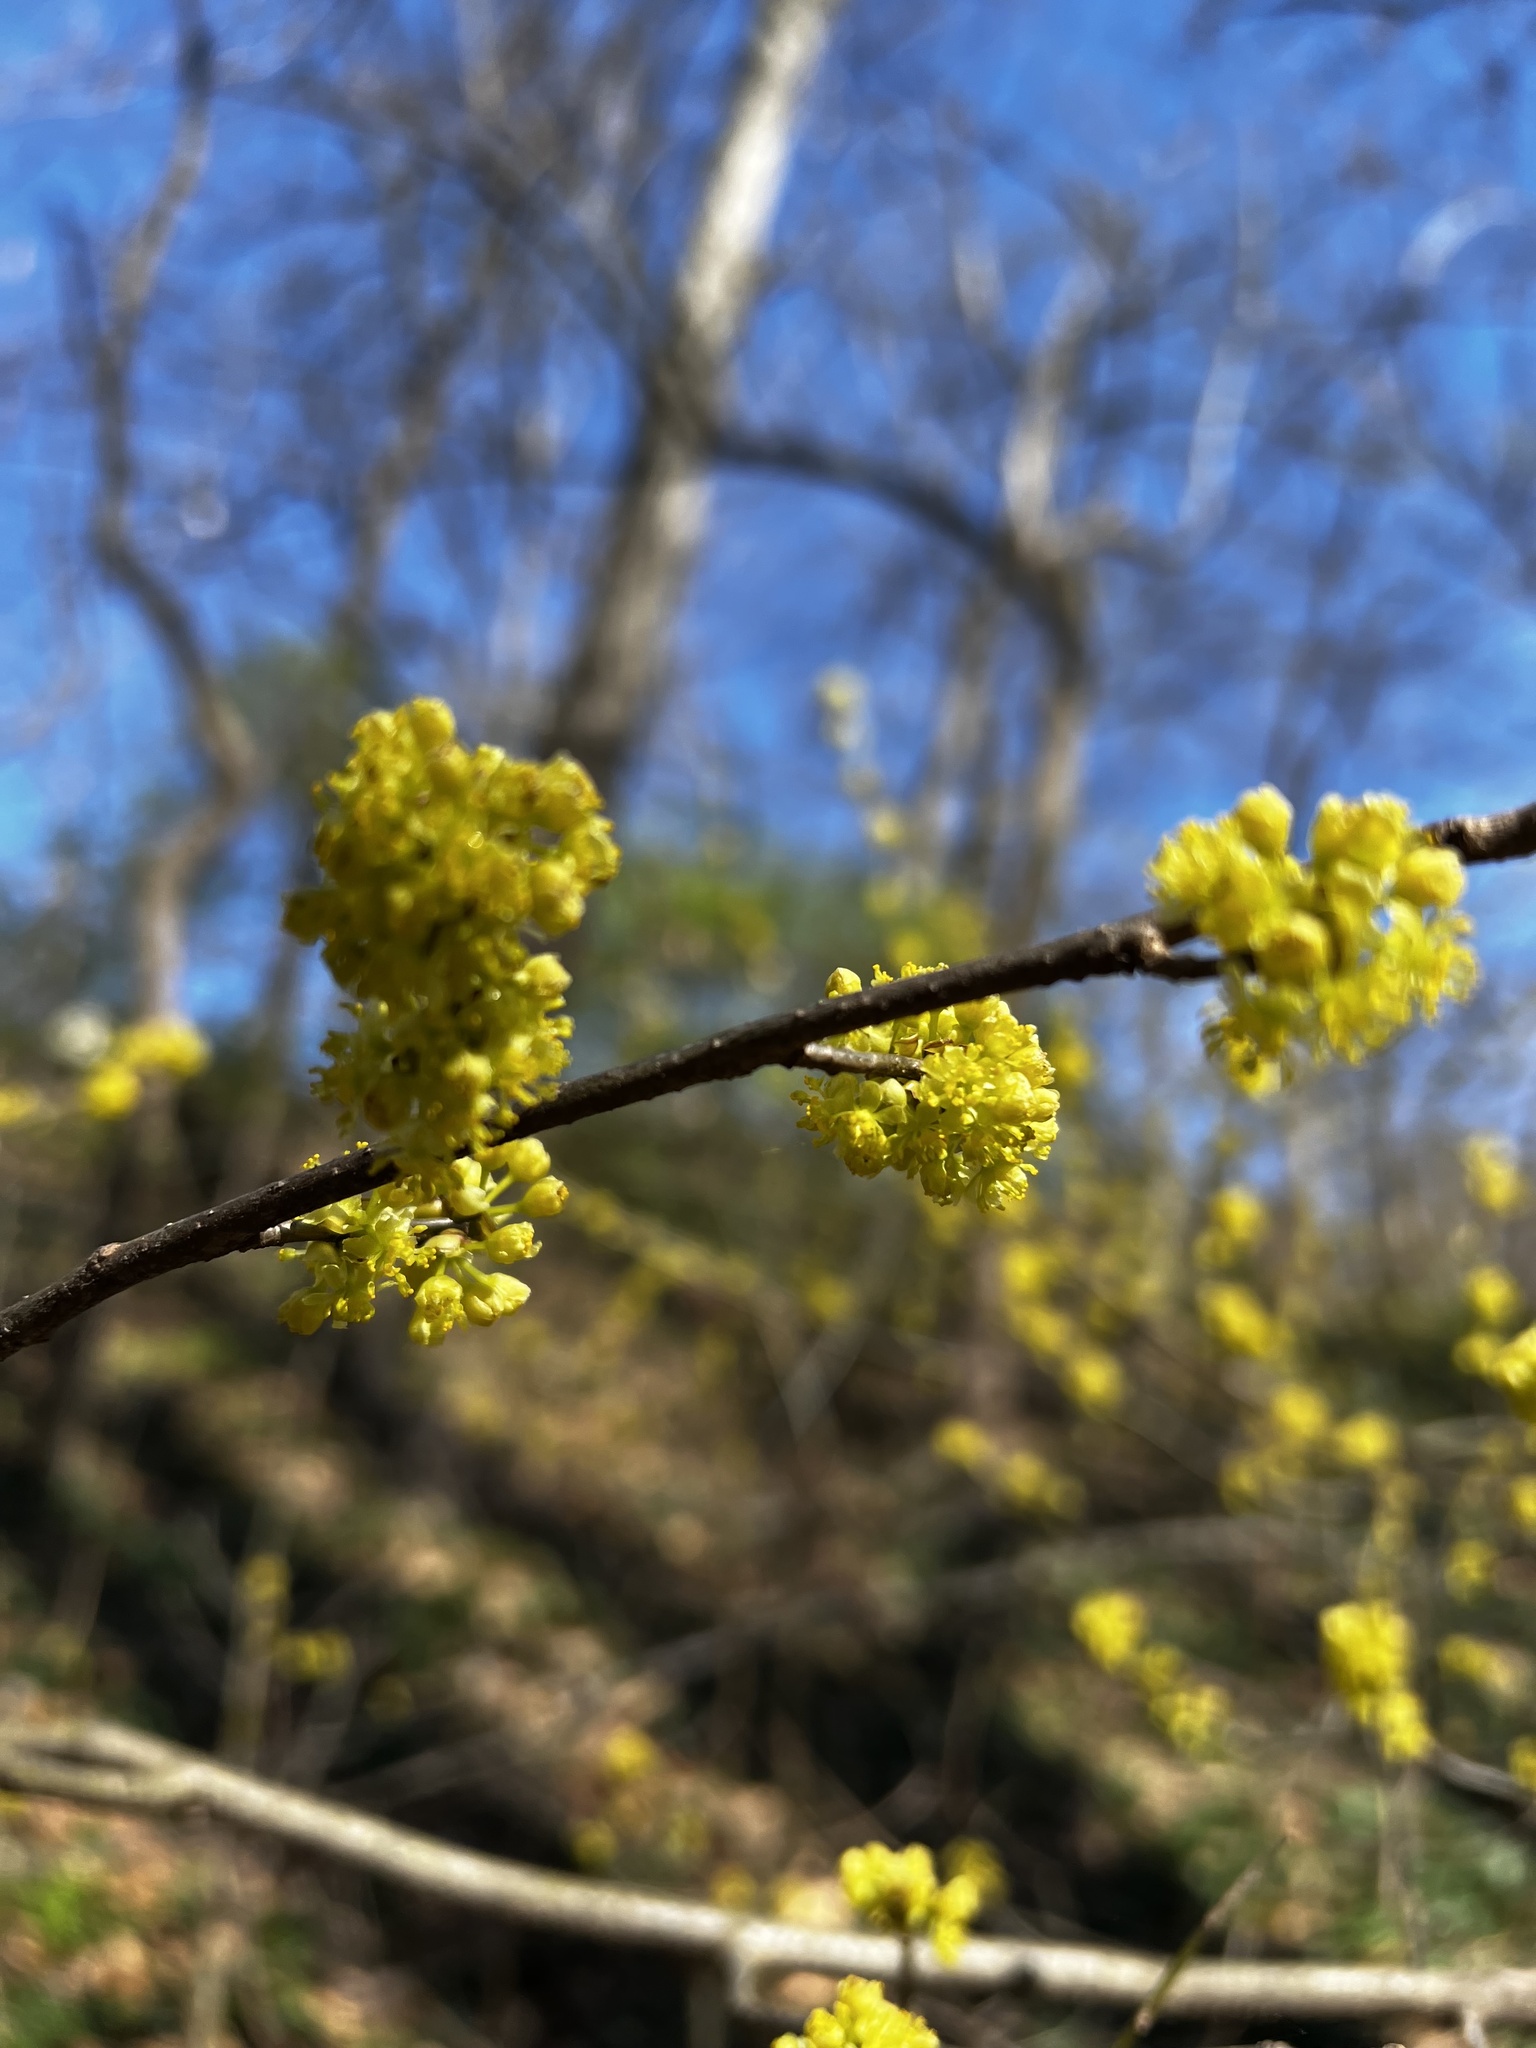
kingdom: Plantae
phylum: Tracheophyta
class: Magnoliopsida
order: Laurales
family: Lauraceae
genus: Lindera
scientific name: Lindera benzoin
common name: Spicebush
